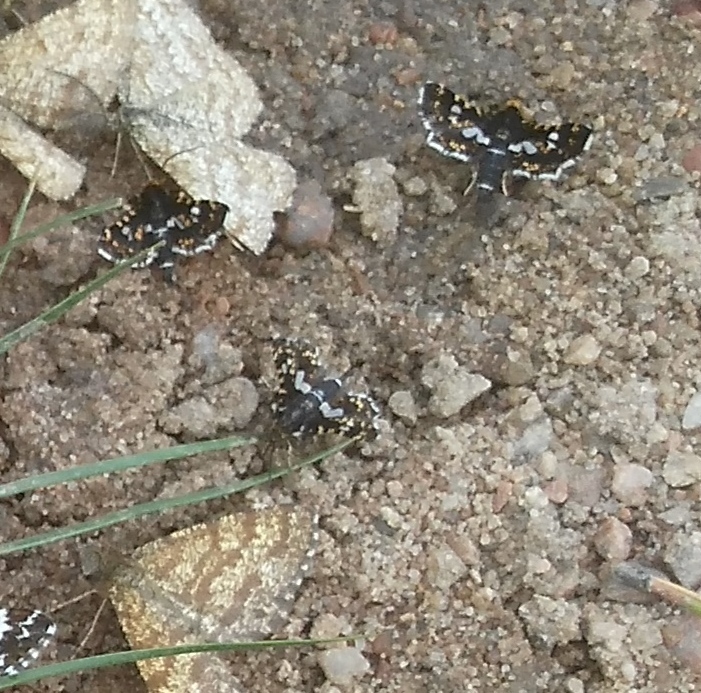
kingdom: Animalia
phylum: Arthropoda
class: Insecta
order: Lepidoptera
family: Thyrididae
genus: Thyris
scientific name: Thyris fenestrella
